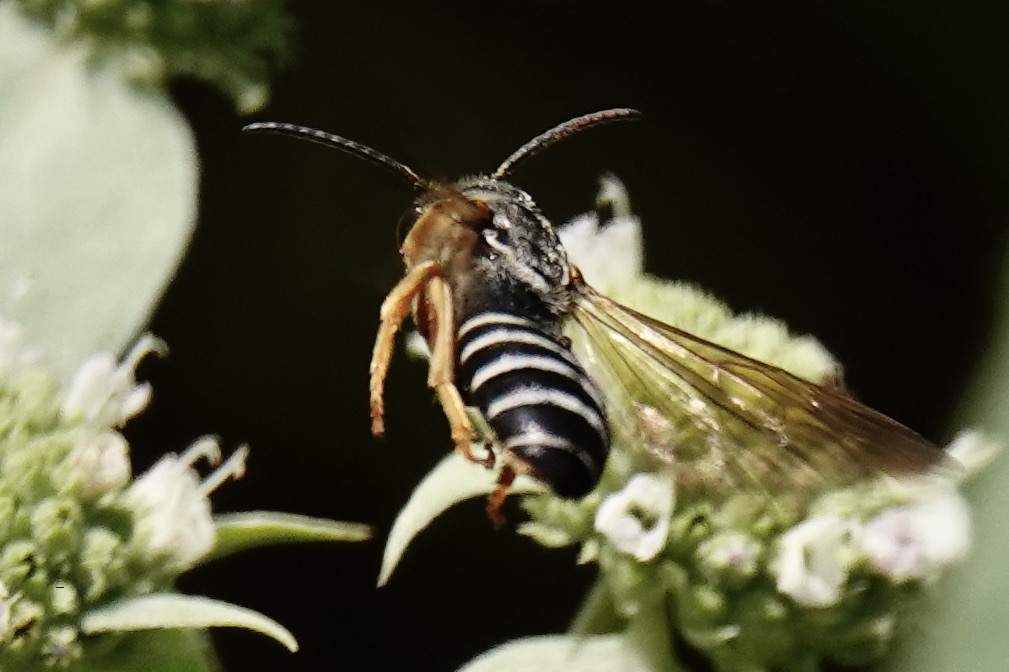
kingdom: Animalia
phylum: Arthropoda
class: Insecta
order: Hymenoptera
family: Halictidae
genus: Halictus
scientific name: Halictus parallelus
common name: Parallel-striped sweat bee
